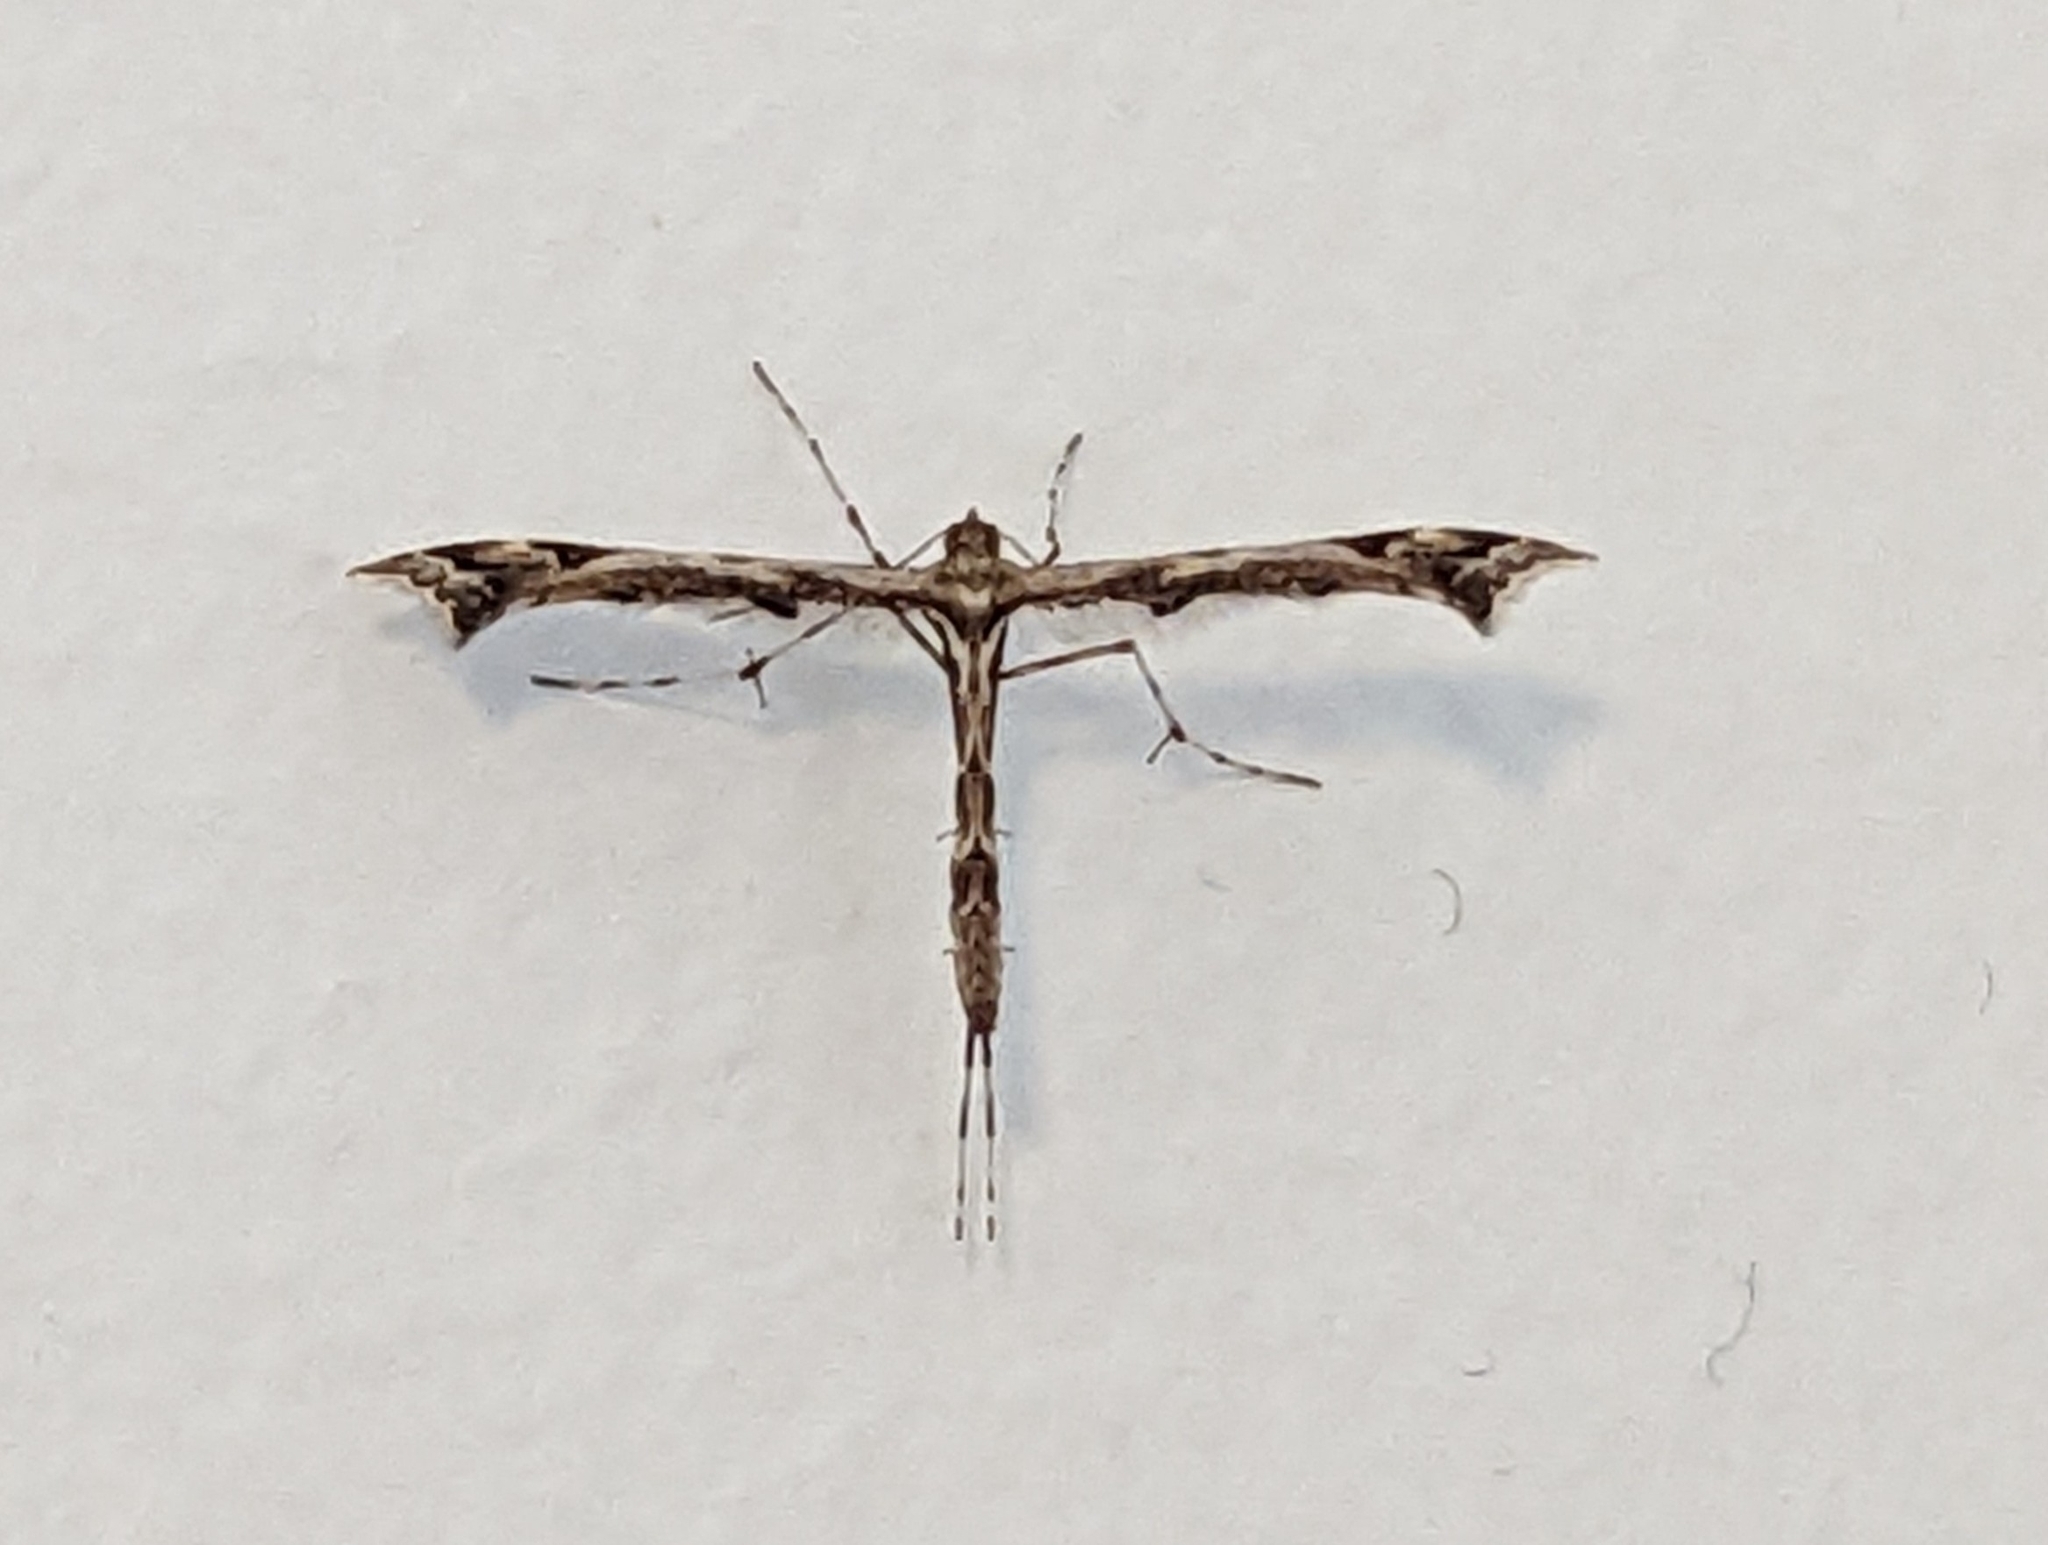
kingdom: Animalia
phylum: Arthropoda
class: Insecta
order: Lepidoptera
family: Pterophoridae
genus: Amblyptilia
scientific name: Amblyptilia acanthadactyla
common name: Beautiful plume
